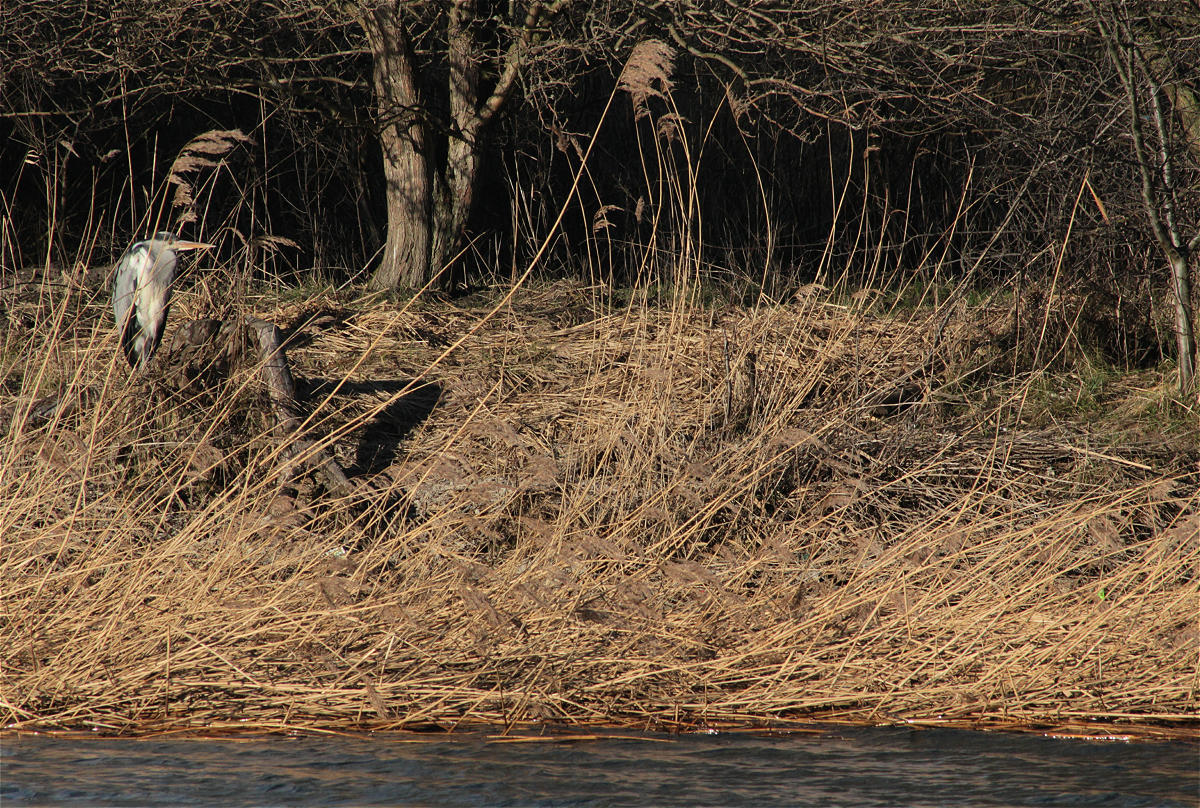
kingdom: Animalia
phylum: Chordata
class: Aves
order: Pelecaniformes
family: Ardeidae
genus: Ardea
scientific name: Ardea cinerea
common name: Grey heron
